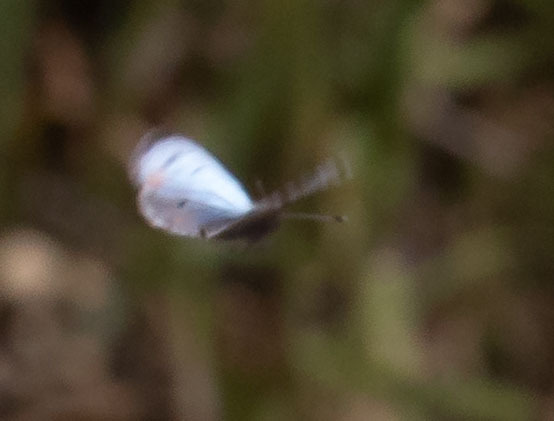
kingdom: Animalia
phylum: Arthropoda
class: Insecta
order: Lepidoptera
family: Lycaenidae
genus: Philotes
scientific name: Philotes sonorensis
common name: Sonoran blue
